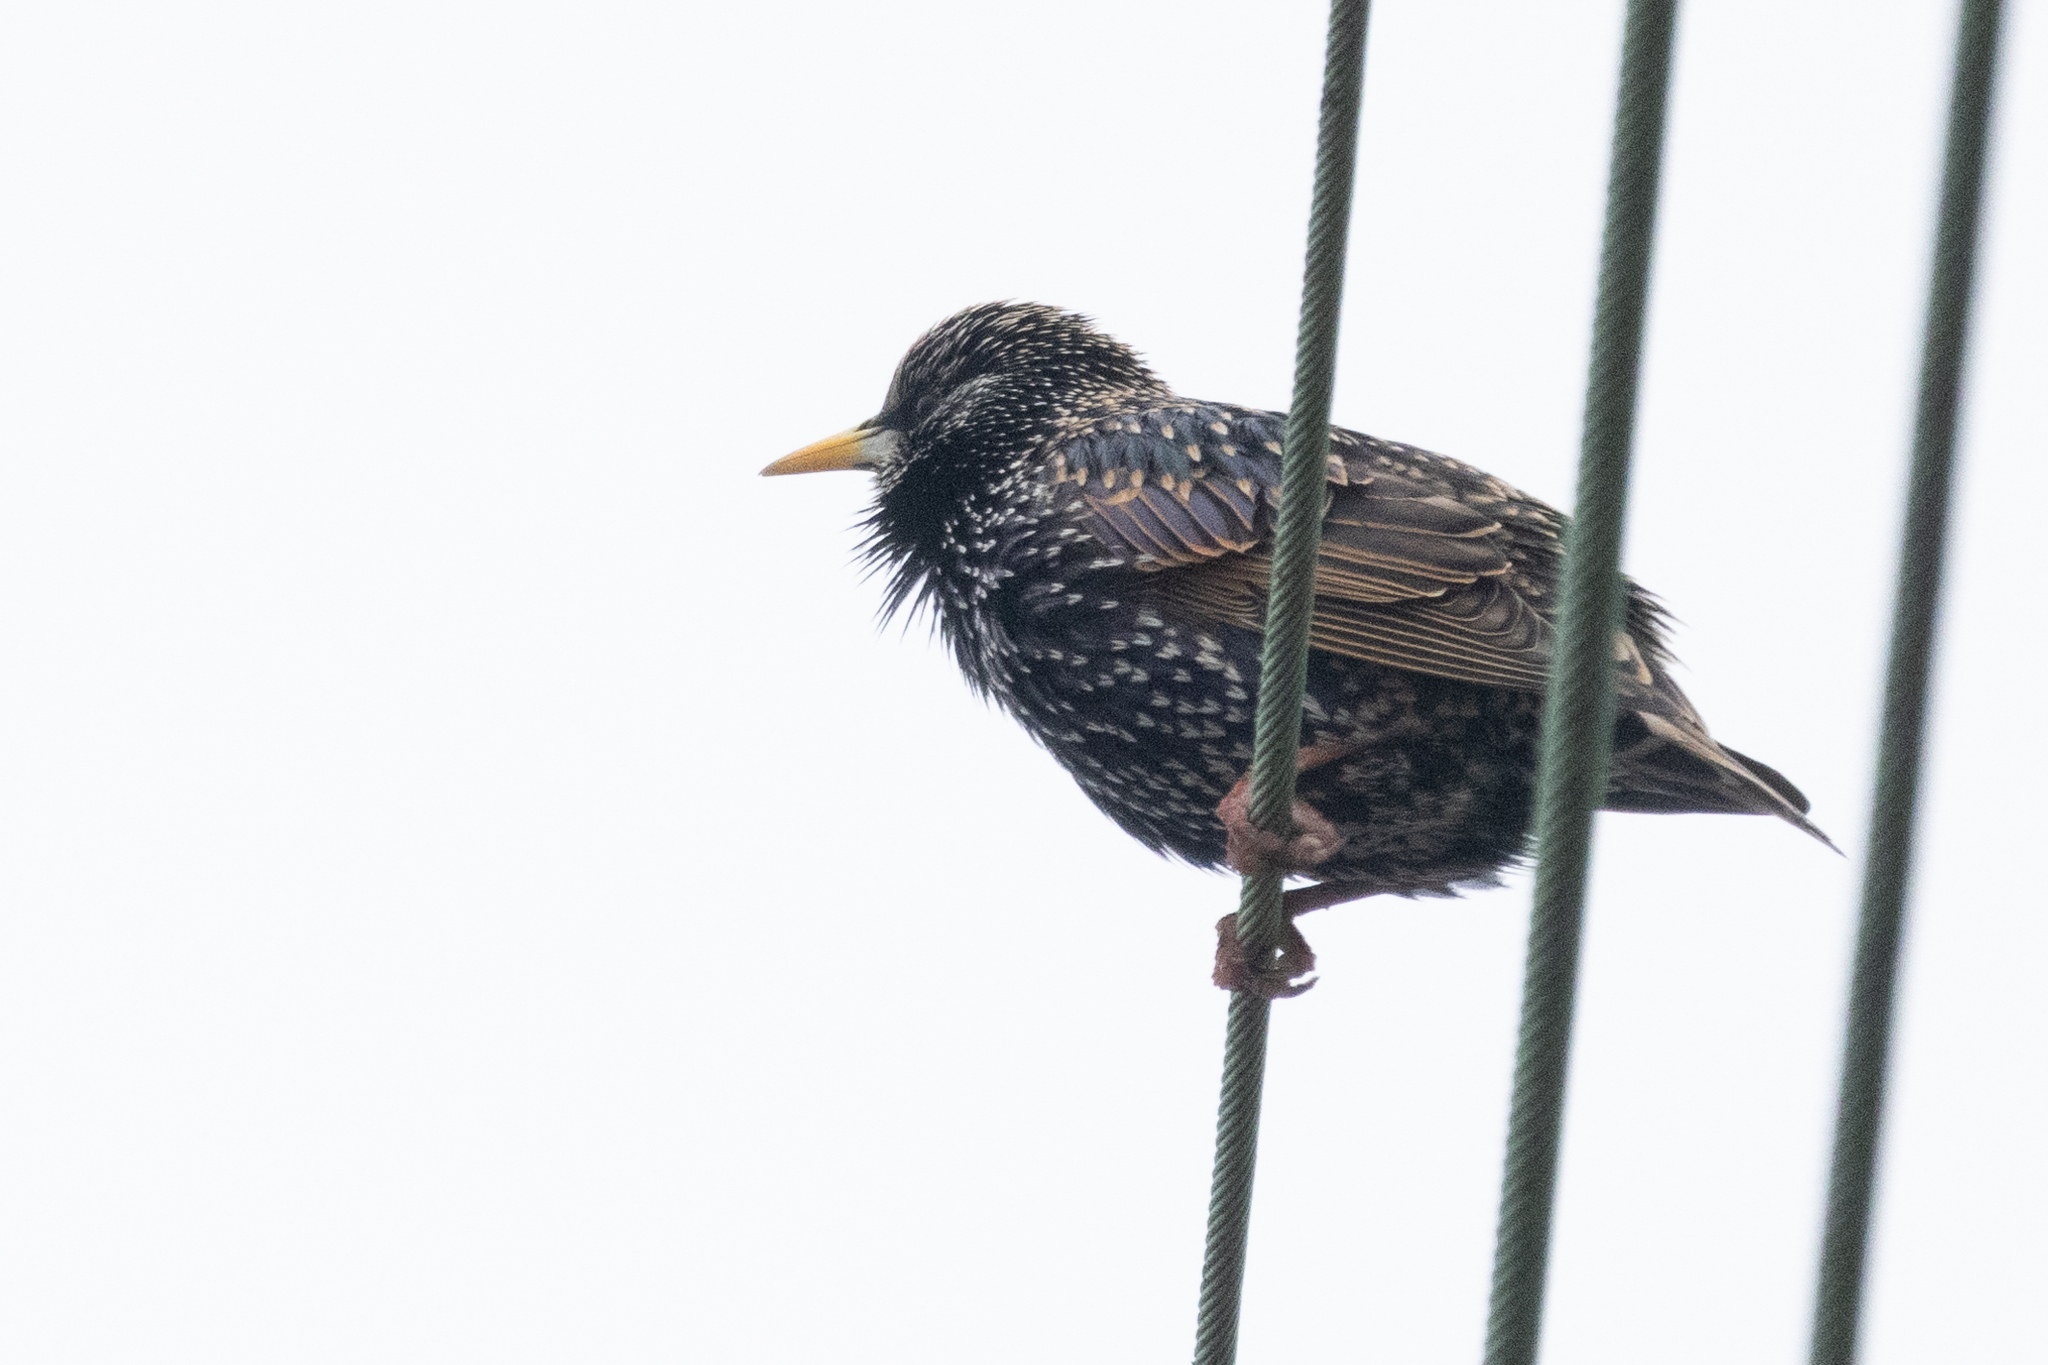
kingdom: Animalia
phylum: Chordata
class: Aves
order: Passeriformes
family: Sturnidae
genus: Sturnus
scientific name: Sturnus vulgaris
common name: Common starling
